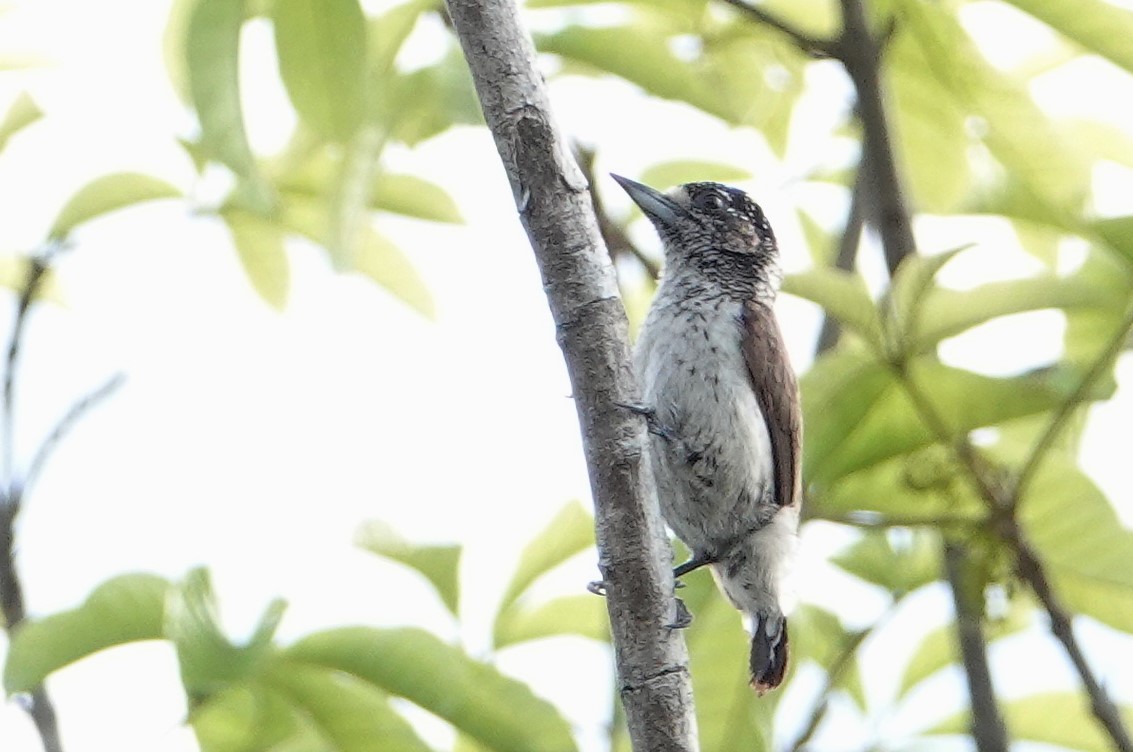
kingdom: Animalia
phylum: Chordata
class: Aves
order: Piciformes
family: Picidae
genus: Picumnus
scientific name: Picumnus spilogaster
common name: White-bellied piculet
